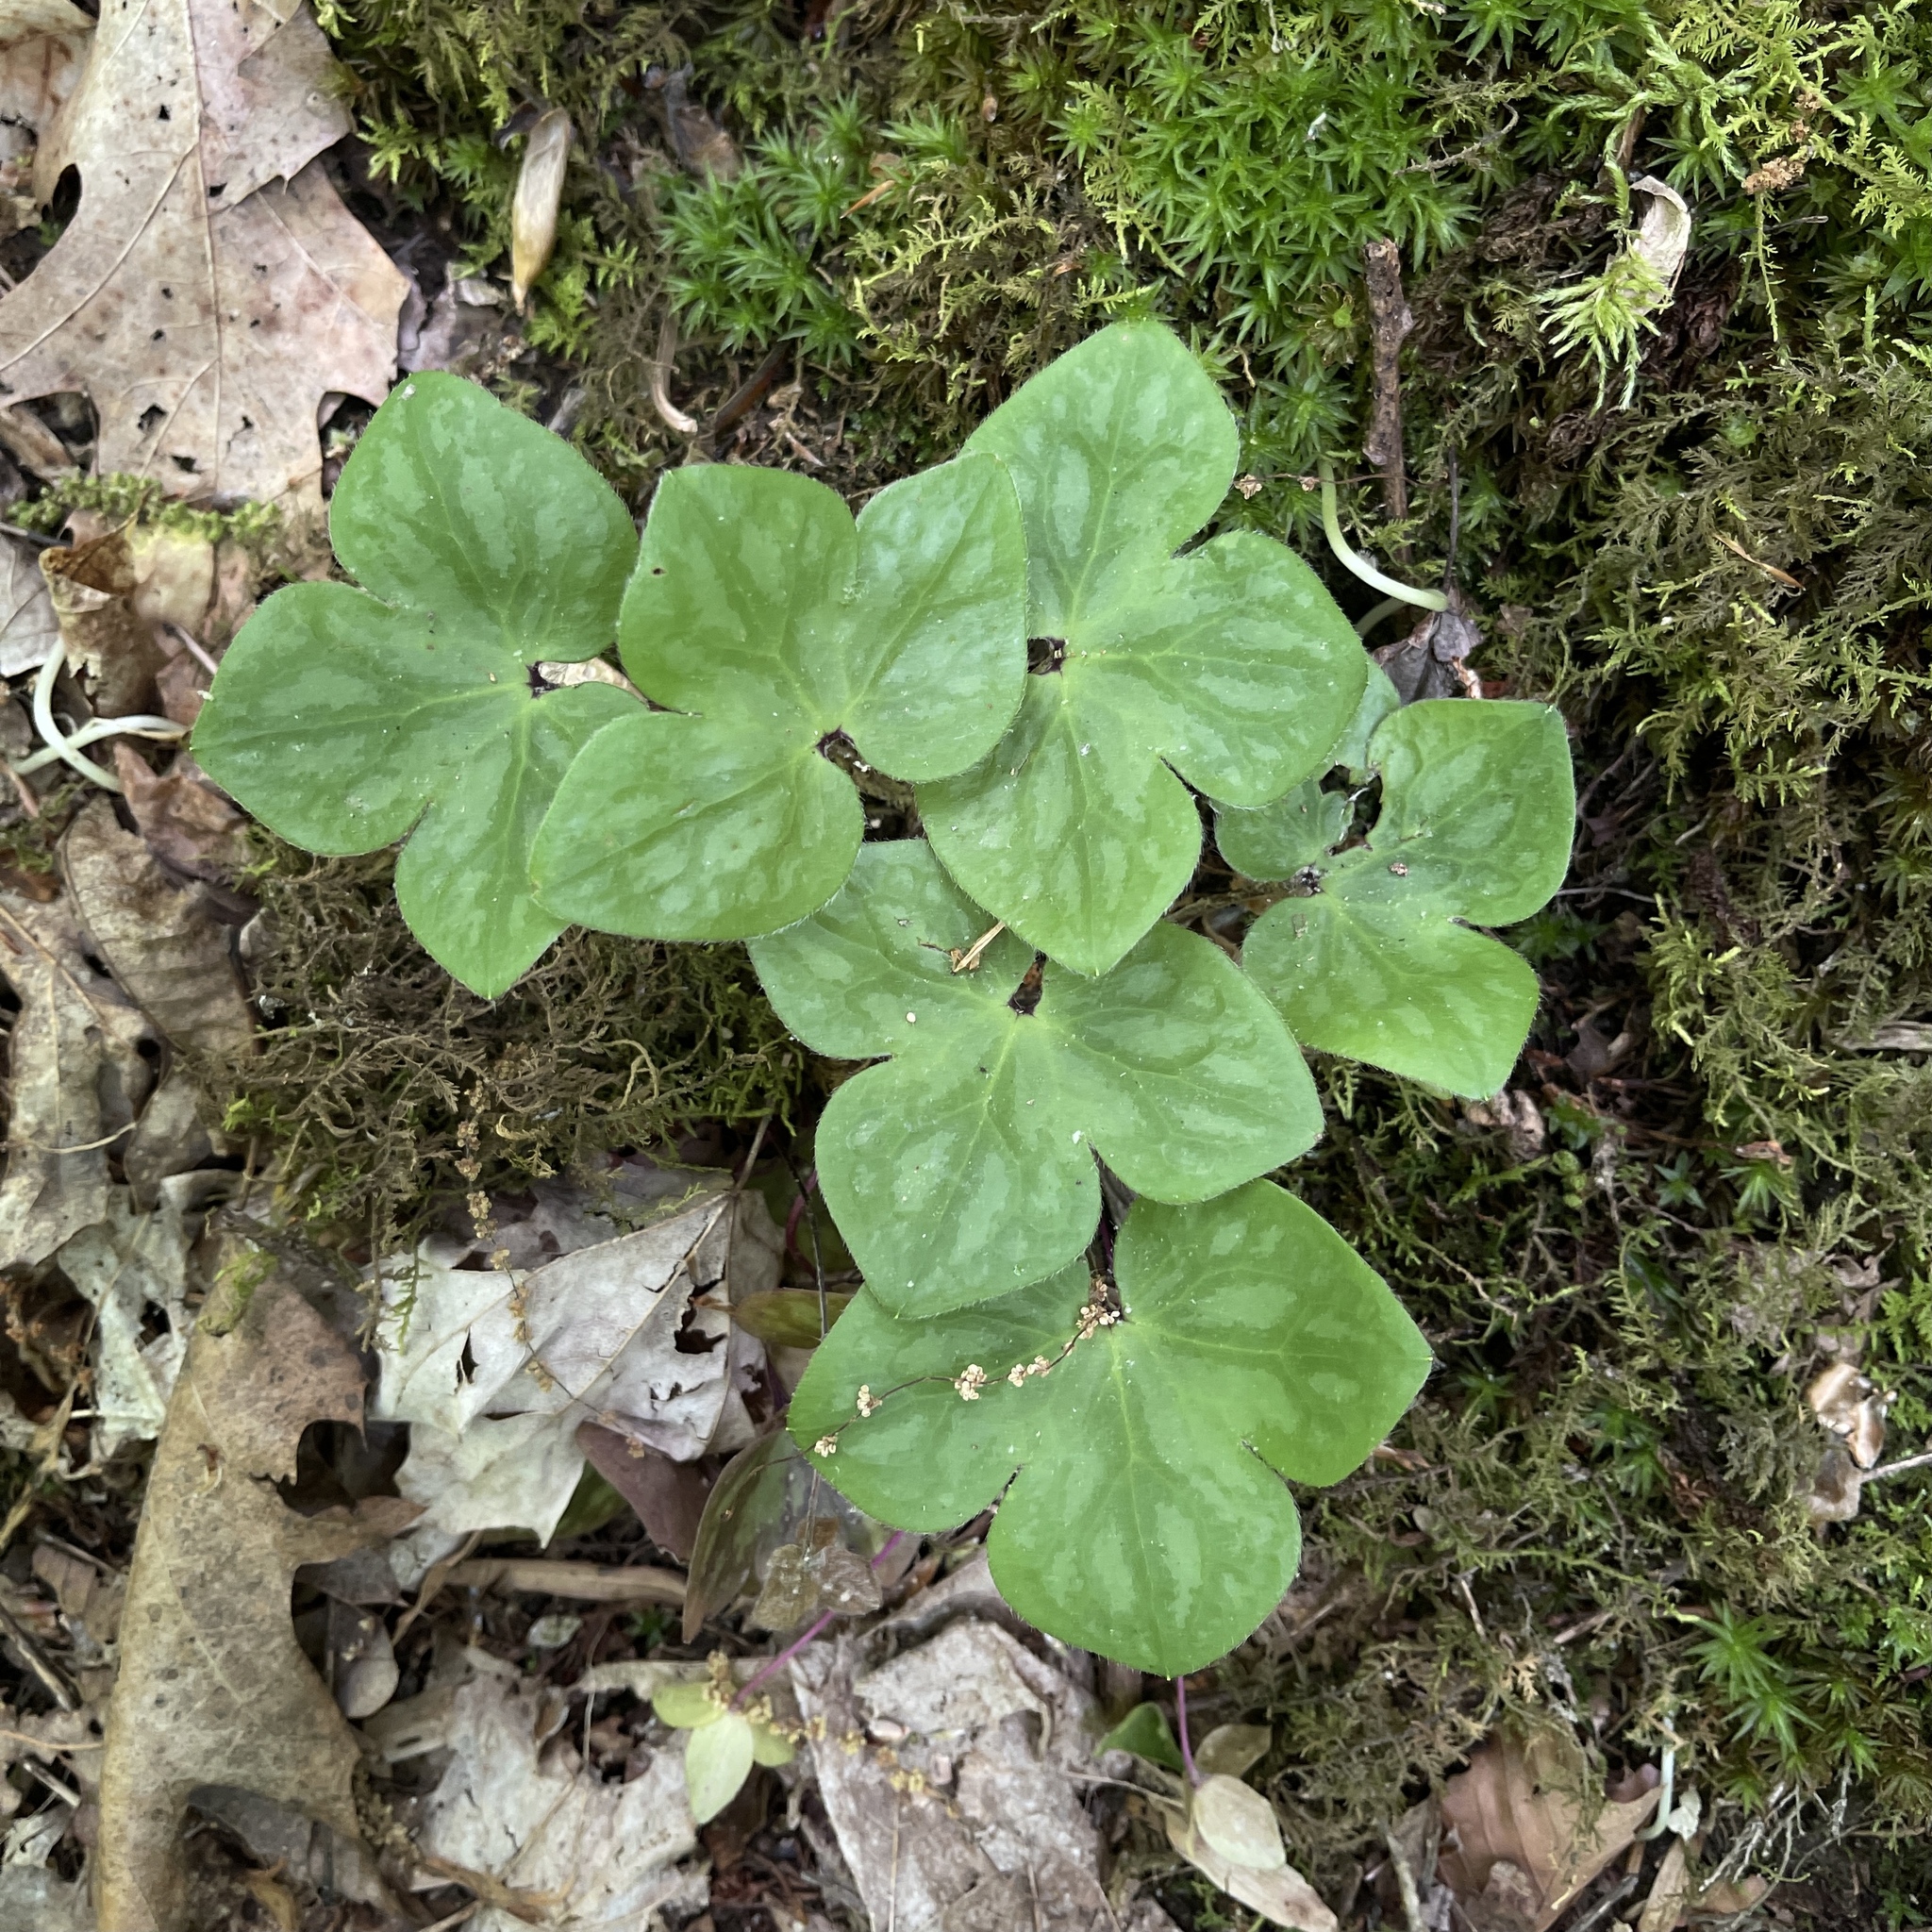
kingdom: Plantae
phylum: Tracheophyta
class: Magnoliopsida
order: Ranunculales
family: Ranunculaceae
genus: Hepatica
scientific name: Hepatica acutiloba
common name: Sharp-lobed hepatica
